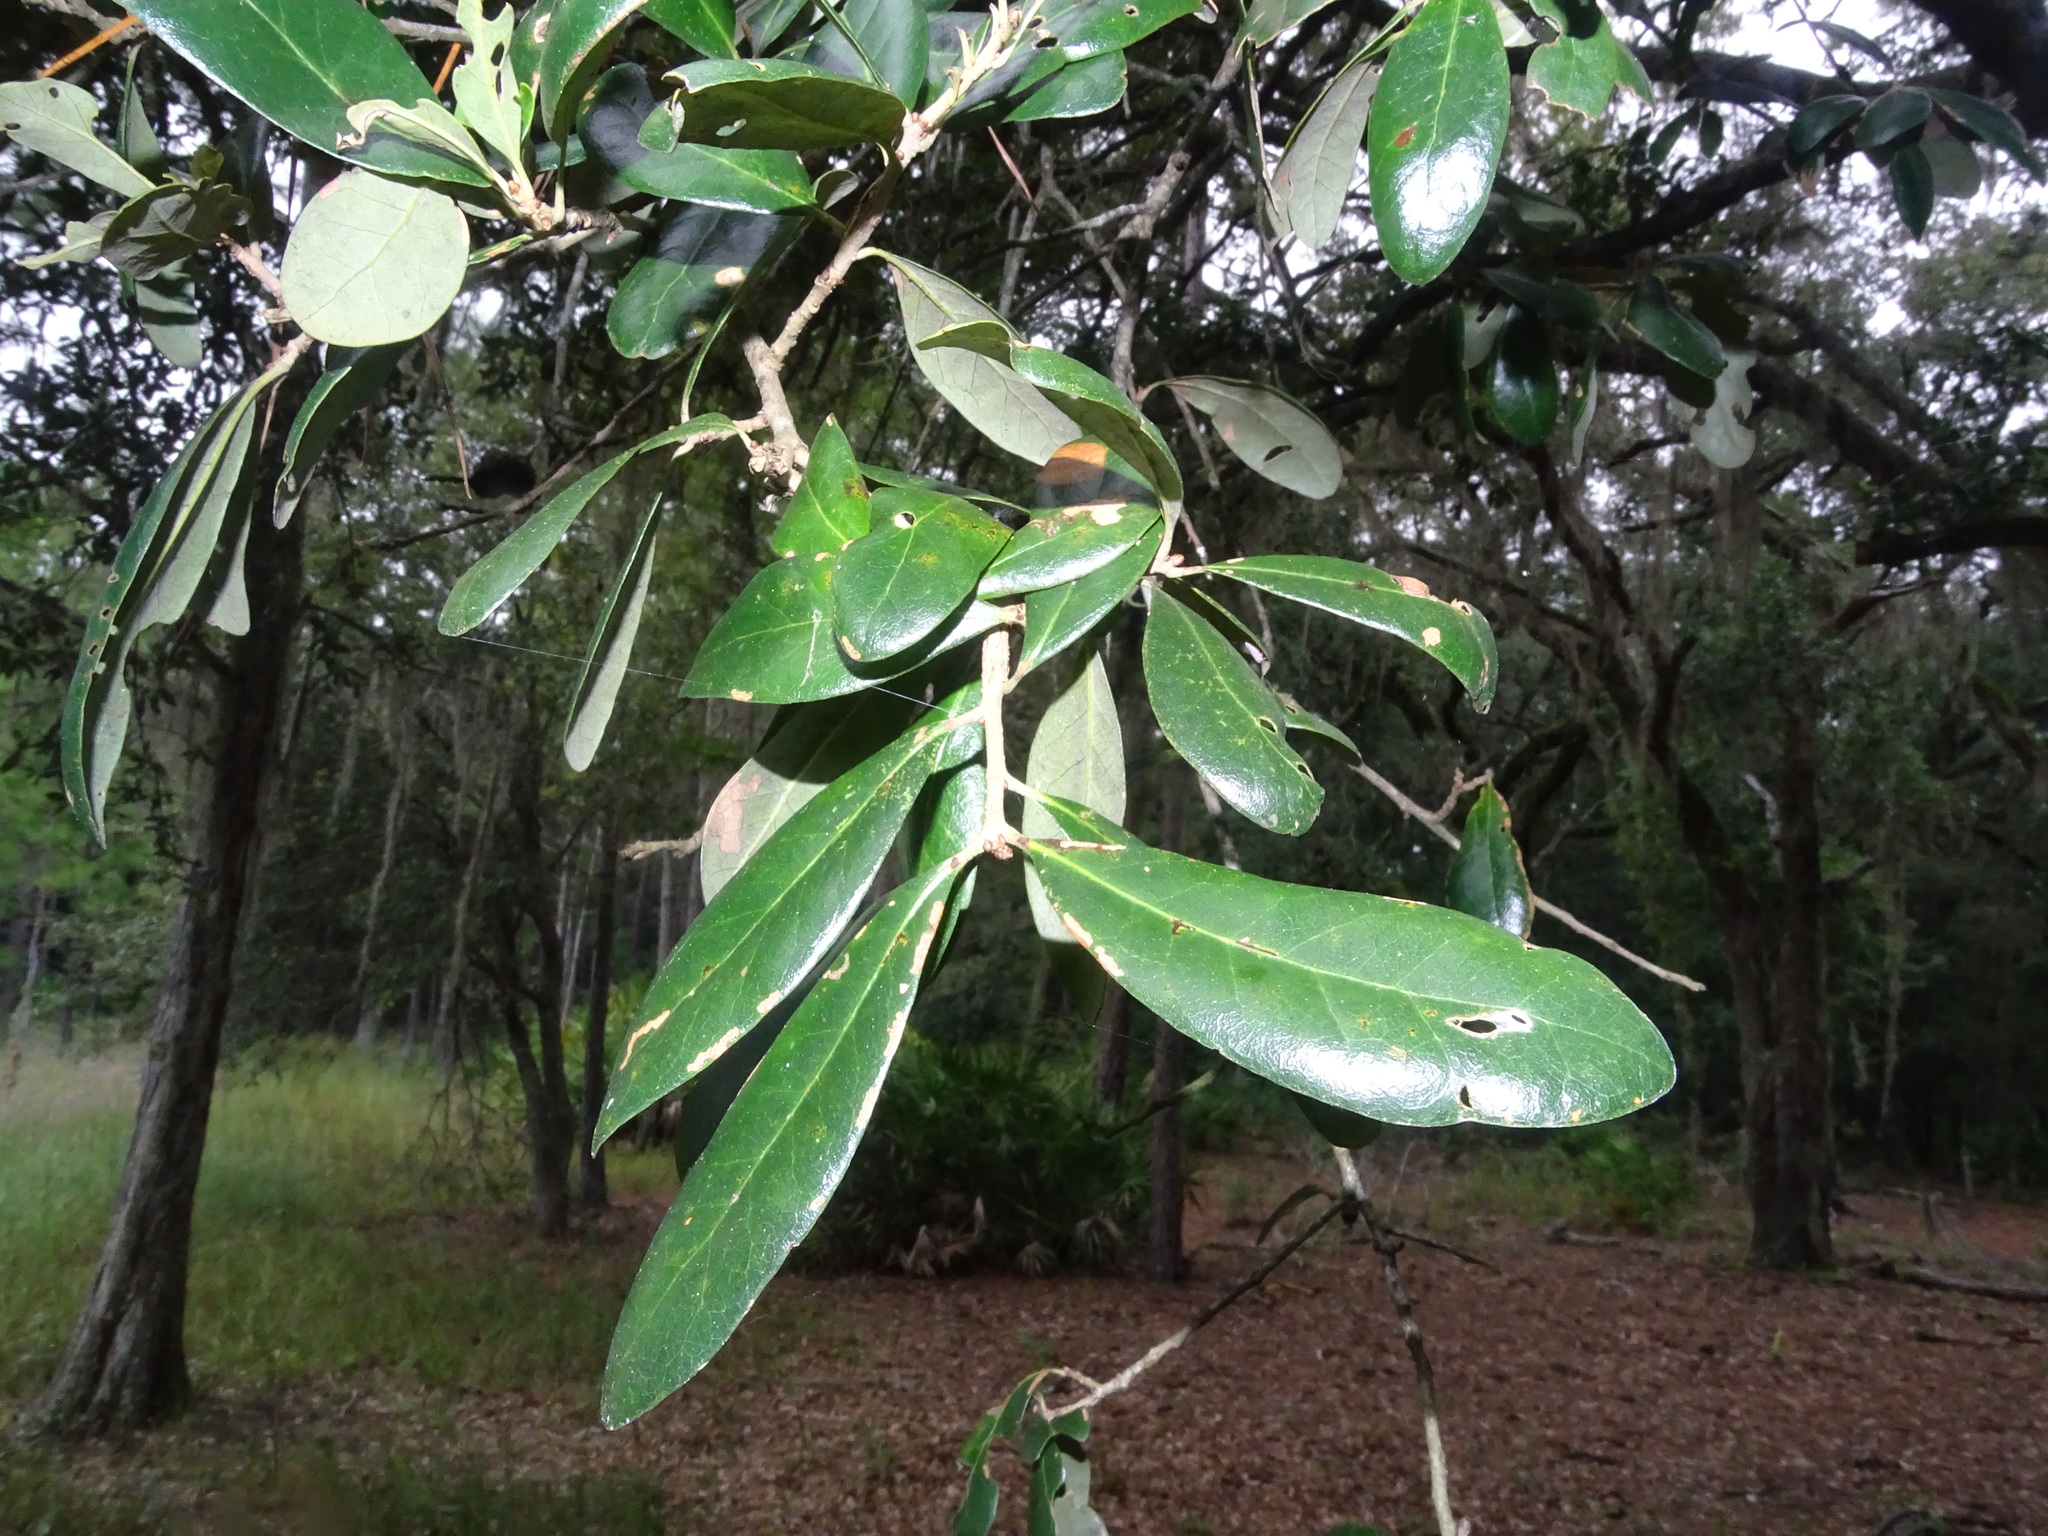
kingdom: Plantae
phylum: Tracheophyta
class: Magnoliopsida
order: Fagales
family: Fagaceae
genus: Quercus
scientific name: Quercus virginiana
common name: Southern live oak
